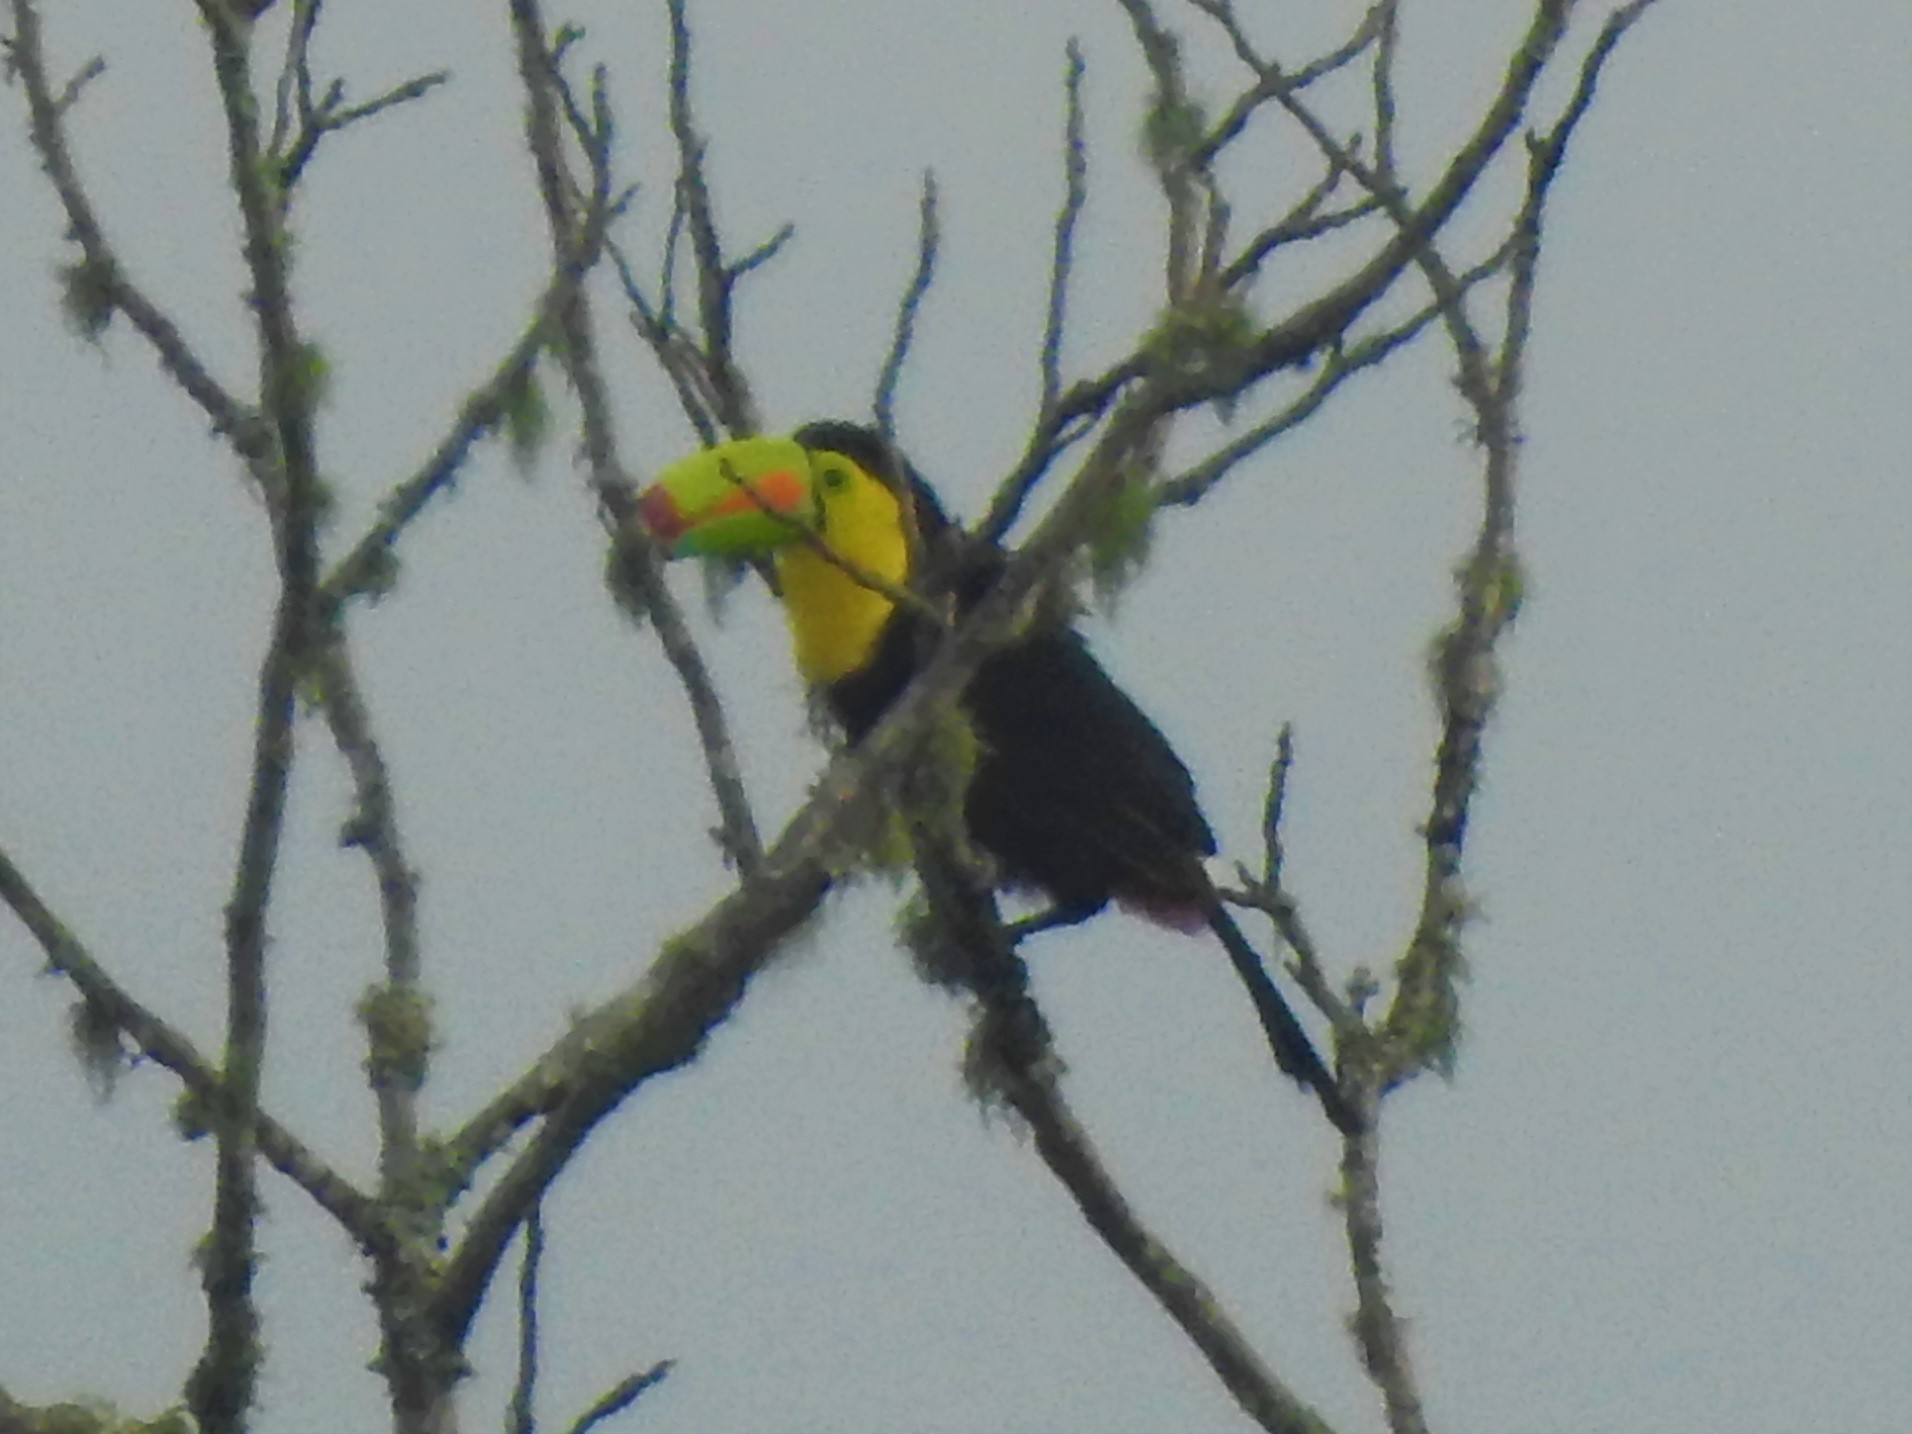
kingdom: Animalia
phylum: Chordata
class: Aves
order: Piciformes
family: Ramphastidae
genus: Ramphastos
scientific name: Ramphastos sulfuratus
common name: Keel-billed toucan
